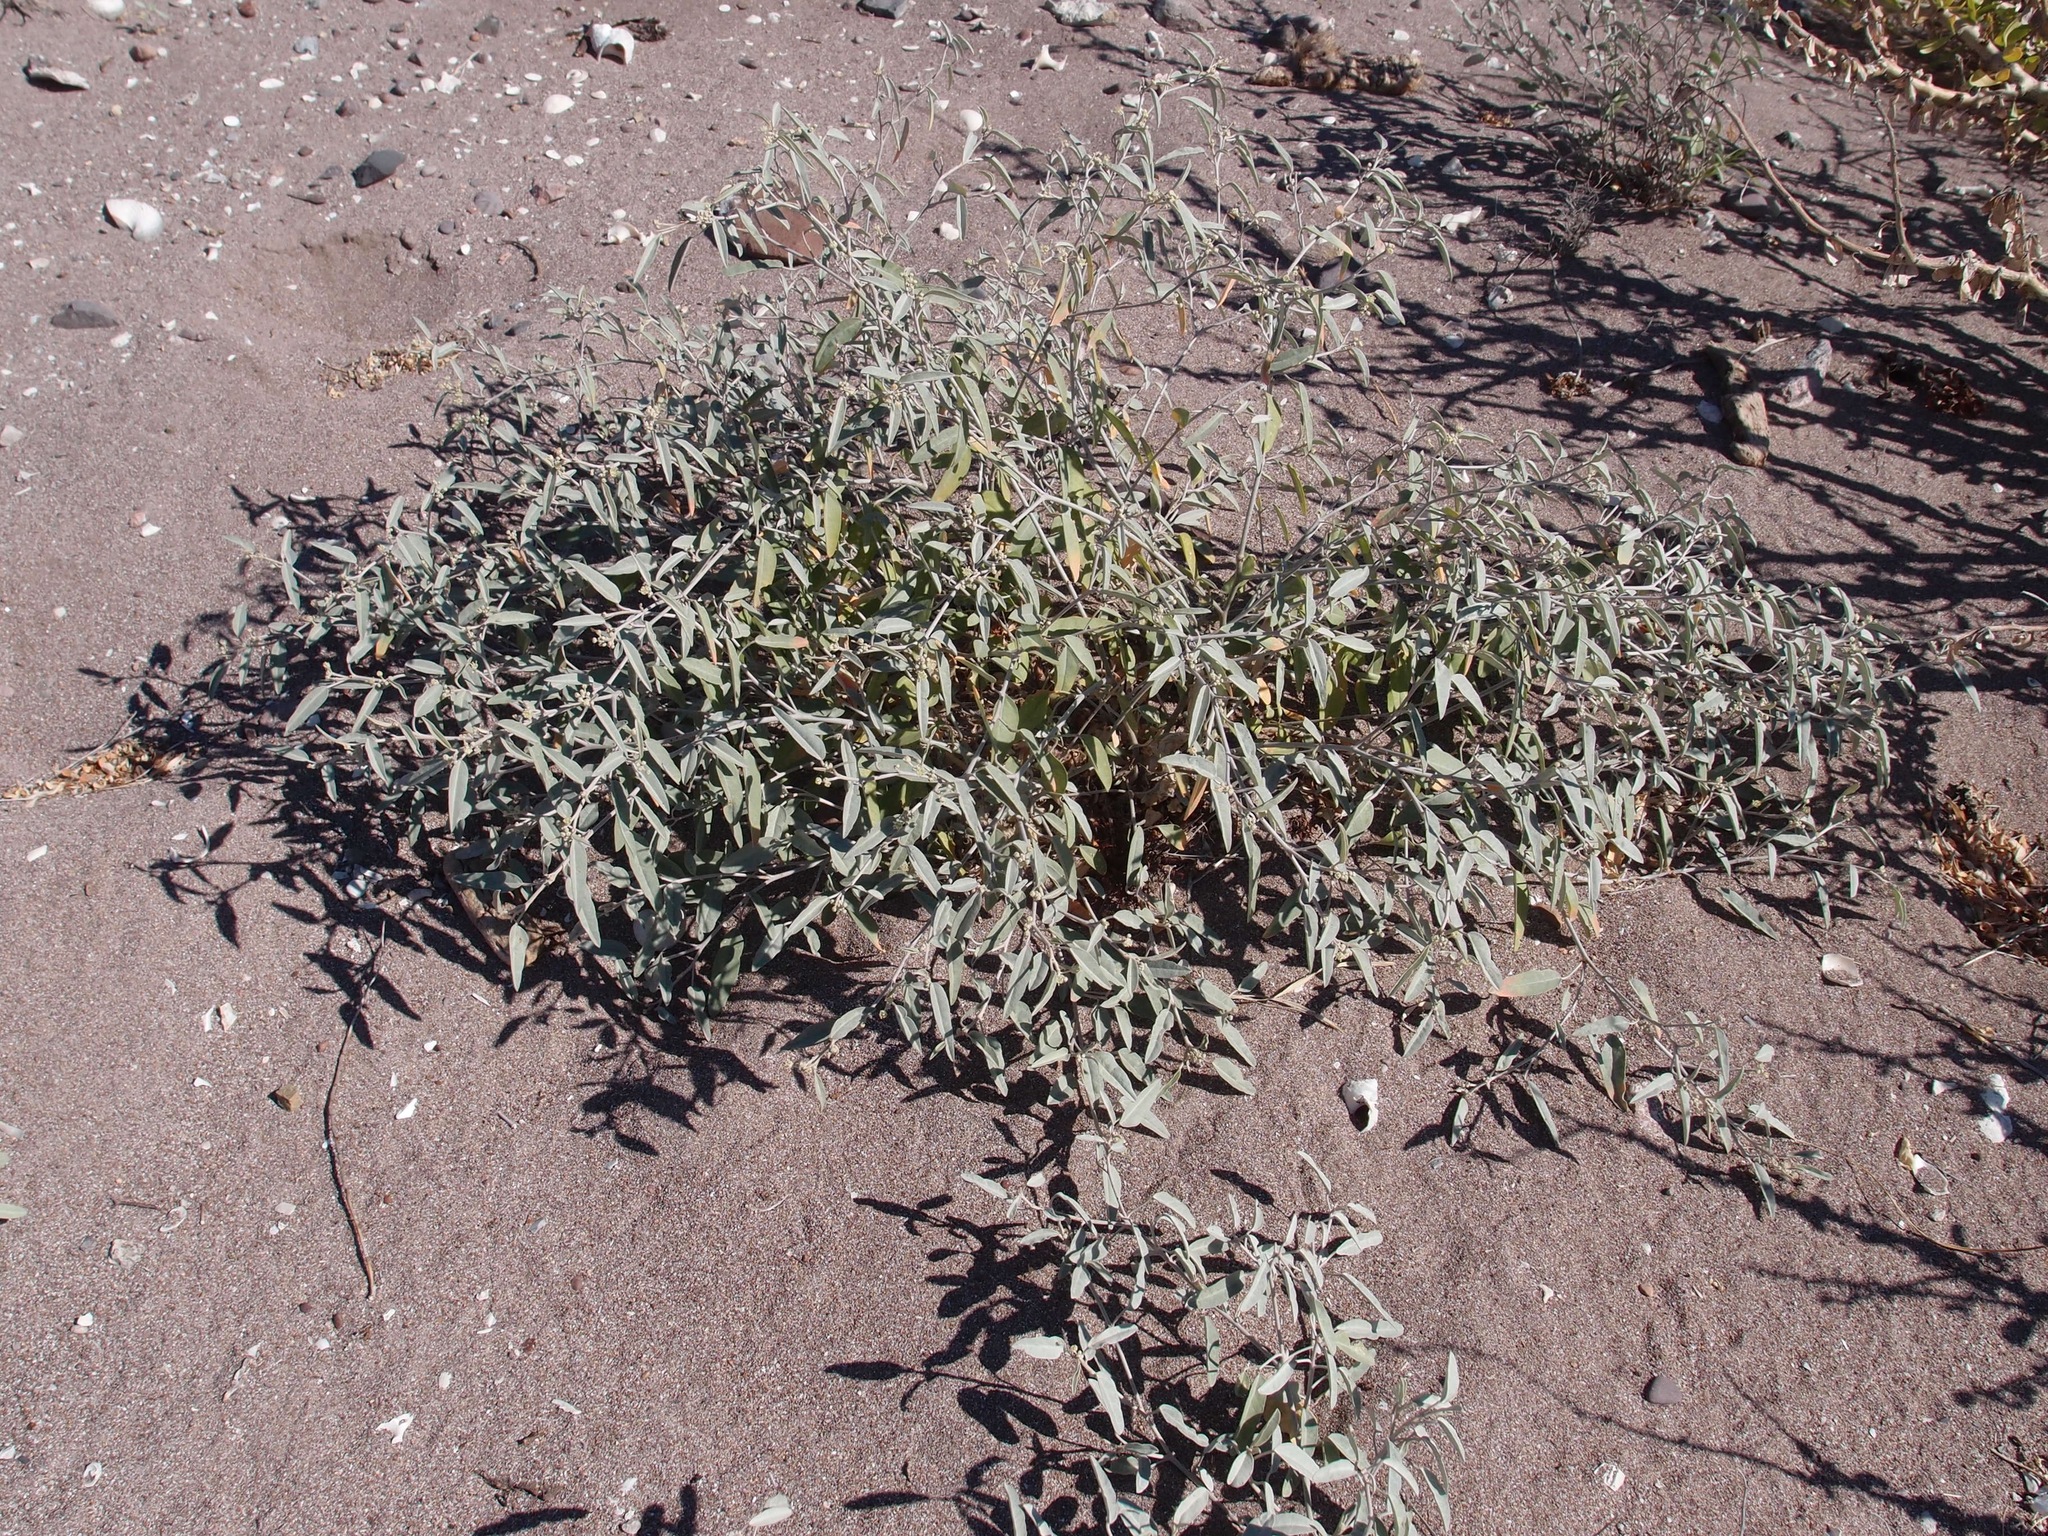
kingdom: Plantae
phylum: Tracheophyta
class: Magnoliopsida
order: Malpighiales
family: Euphorbiaceae
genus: Croton
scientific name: Croton californicus
